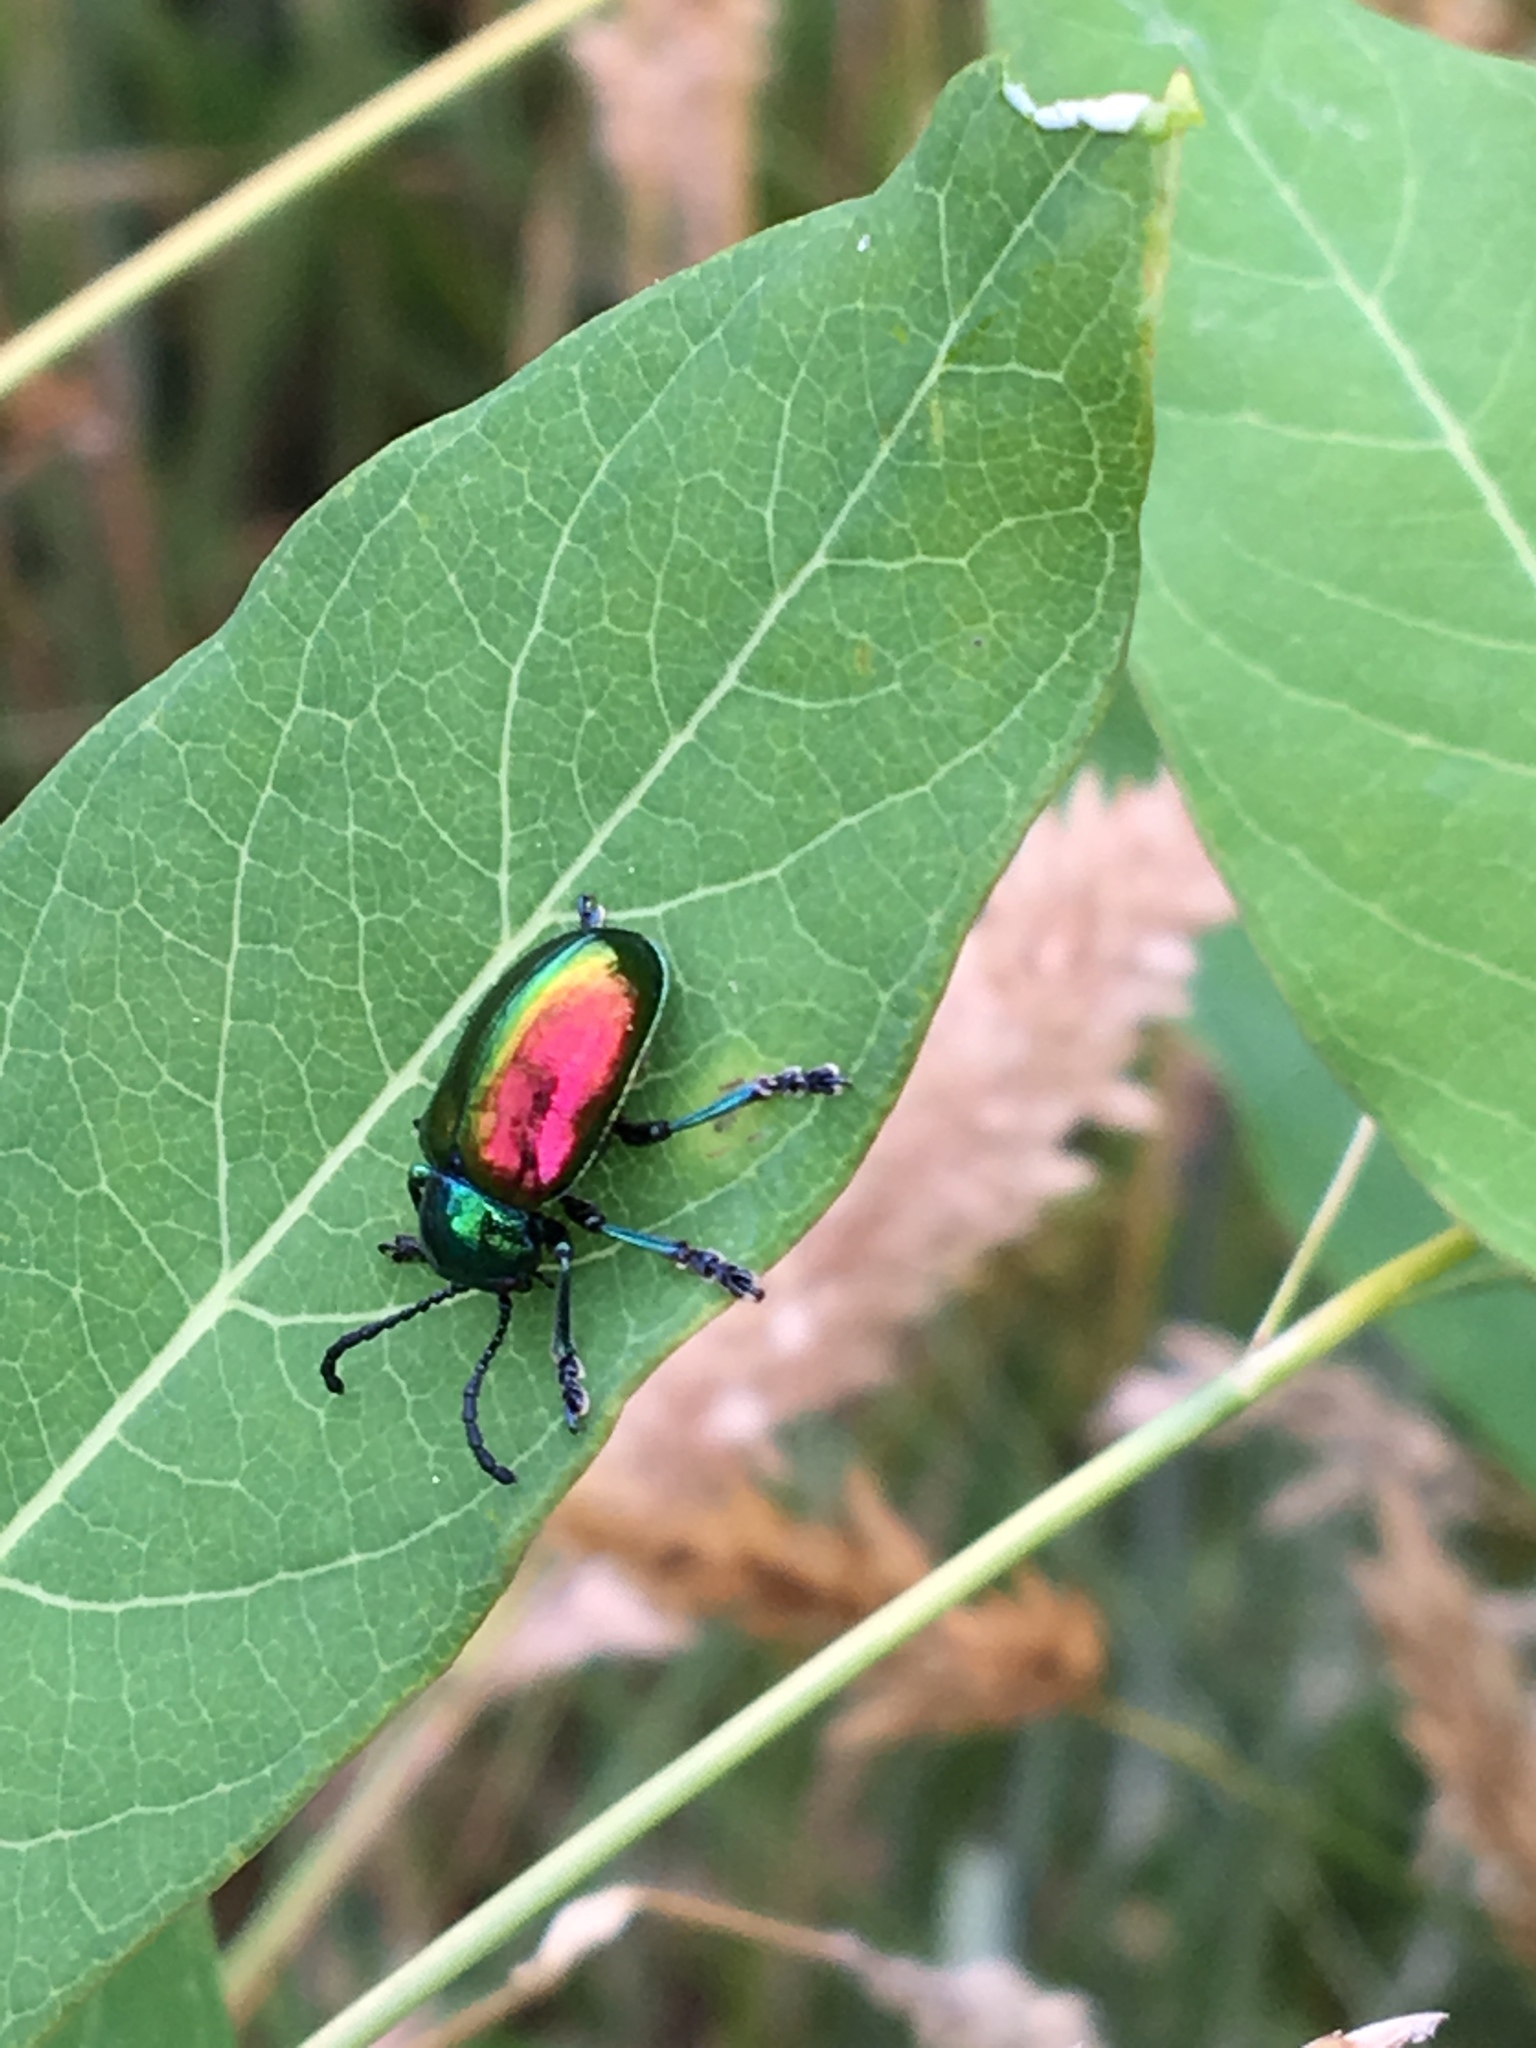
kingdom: Animalia
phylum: Arthropoda
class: Insecta
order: Coleoptera
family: Chrysomelidae
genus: Chrysochus
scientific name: Chrysochus auratus
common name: Dogbane leaf beetle
